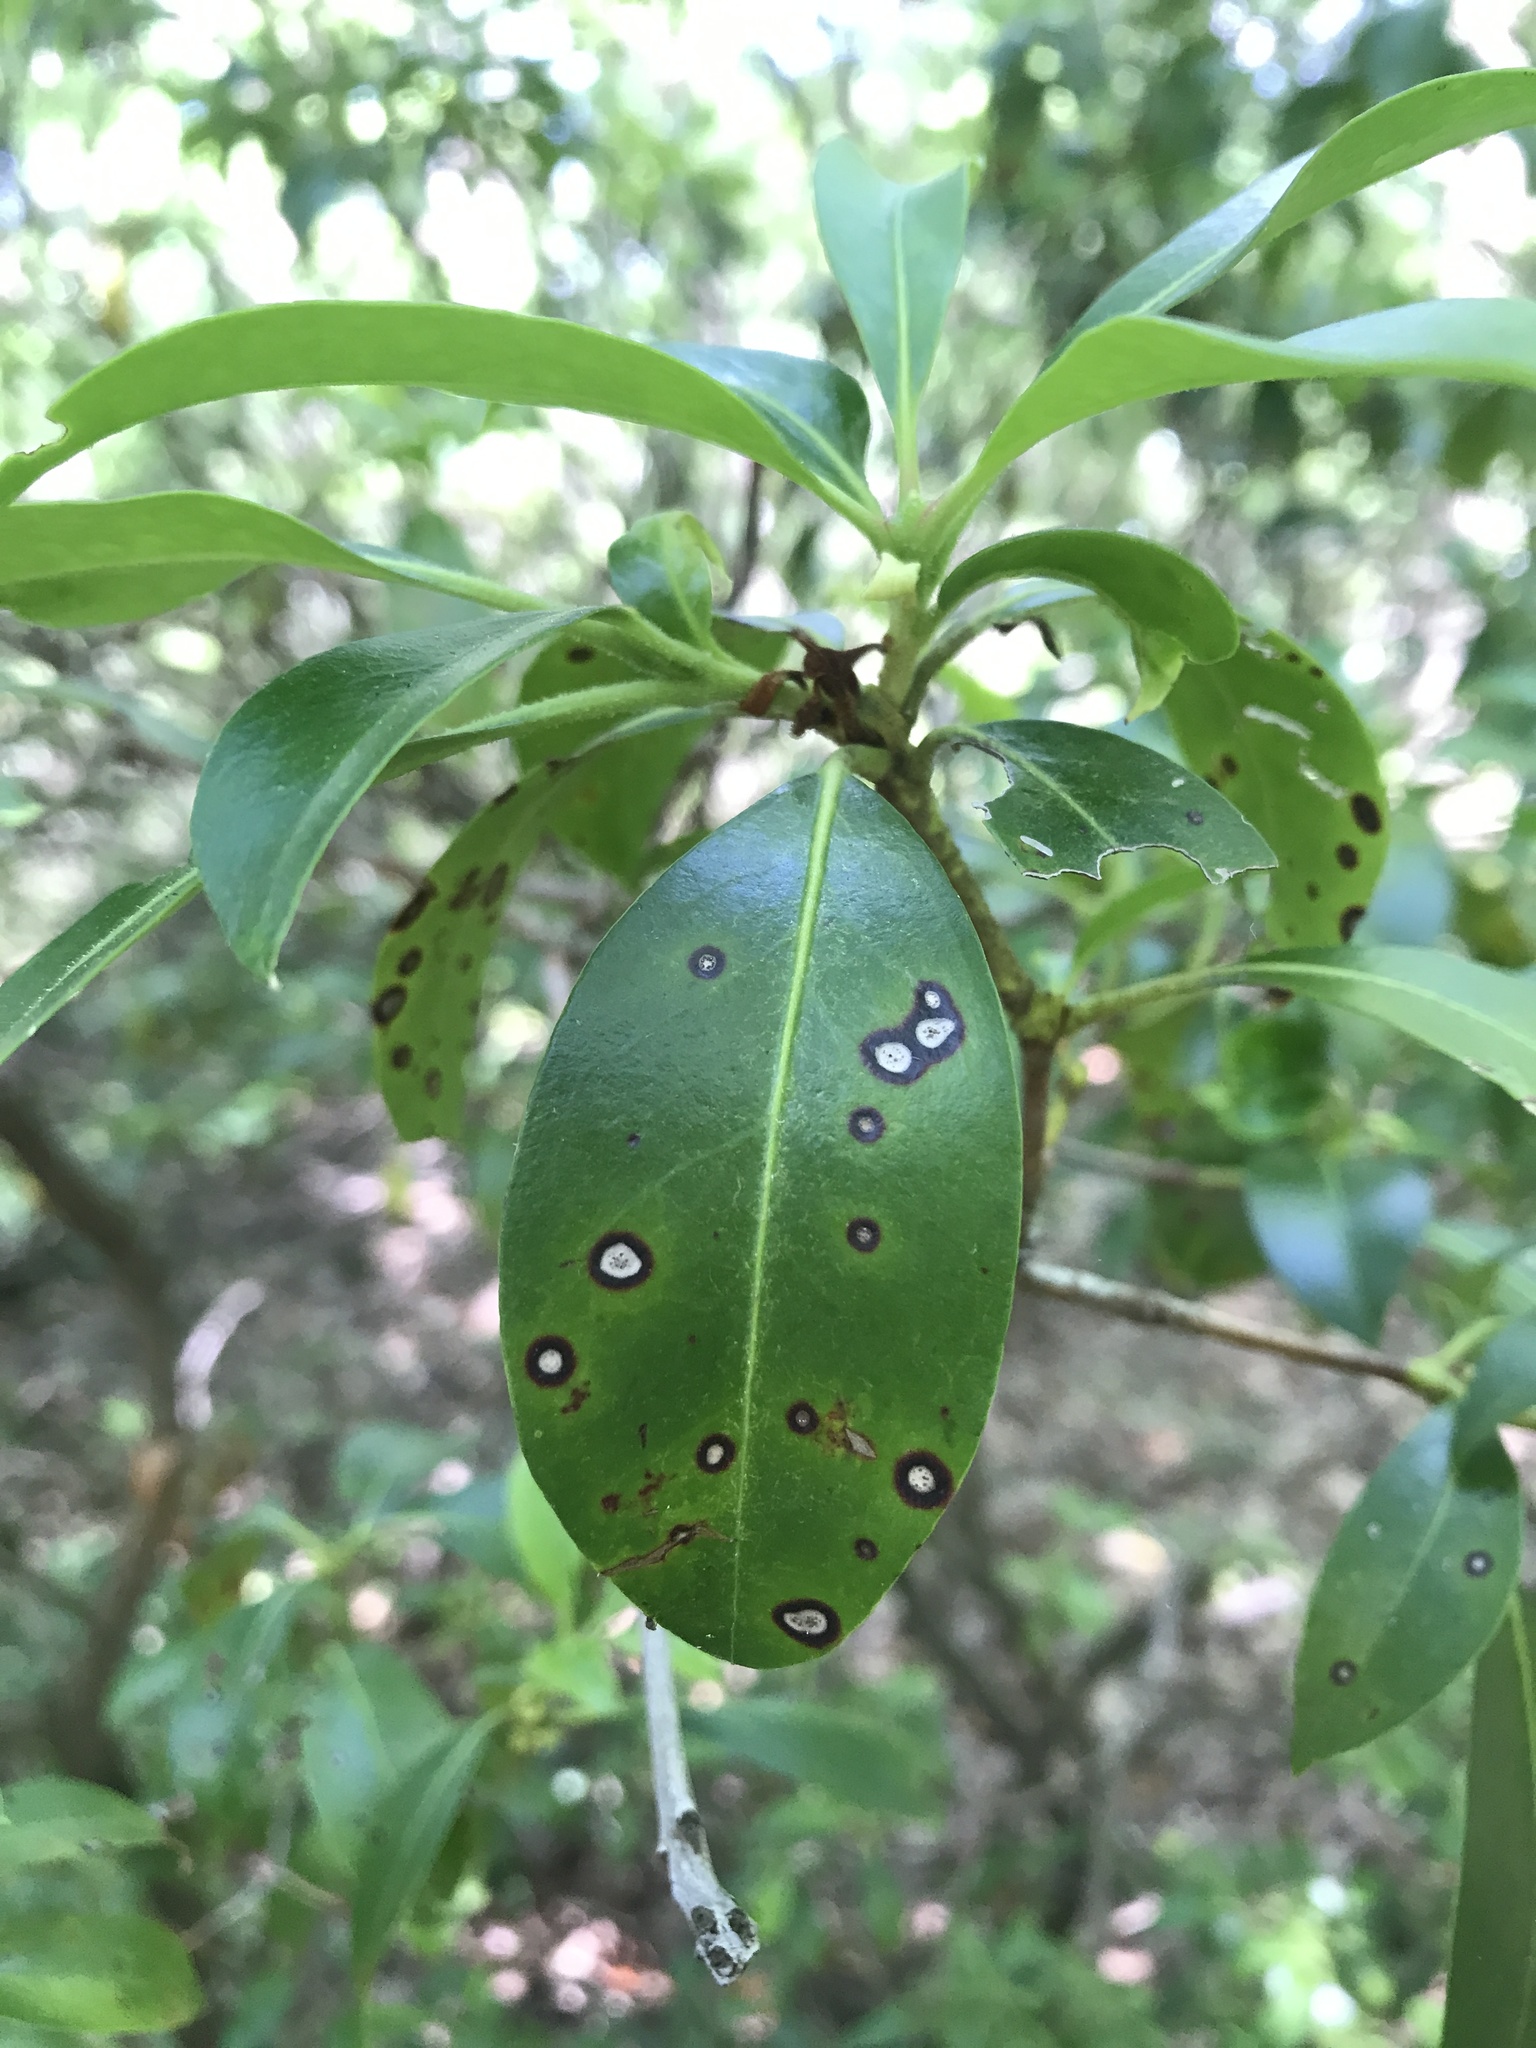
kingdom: Fungi
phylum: Ascomycota
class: Dothideomycetes
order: Mycosphaerellales
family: Mycosphaerellaceae
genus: Mycosphaerella
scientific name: Mycosphaerella colorata
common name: Mountain laurel leaf spot
